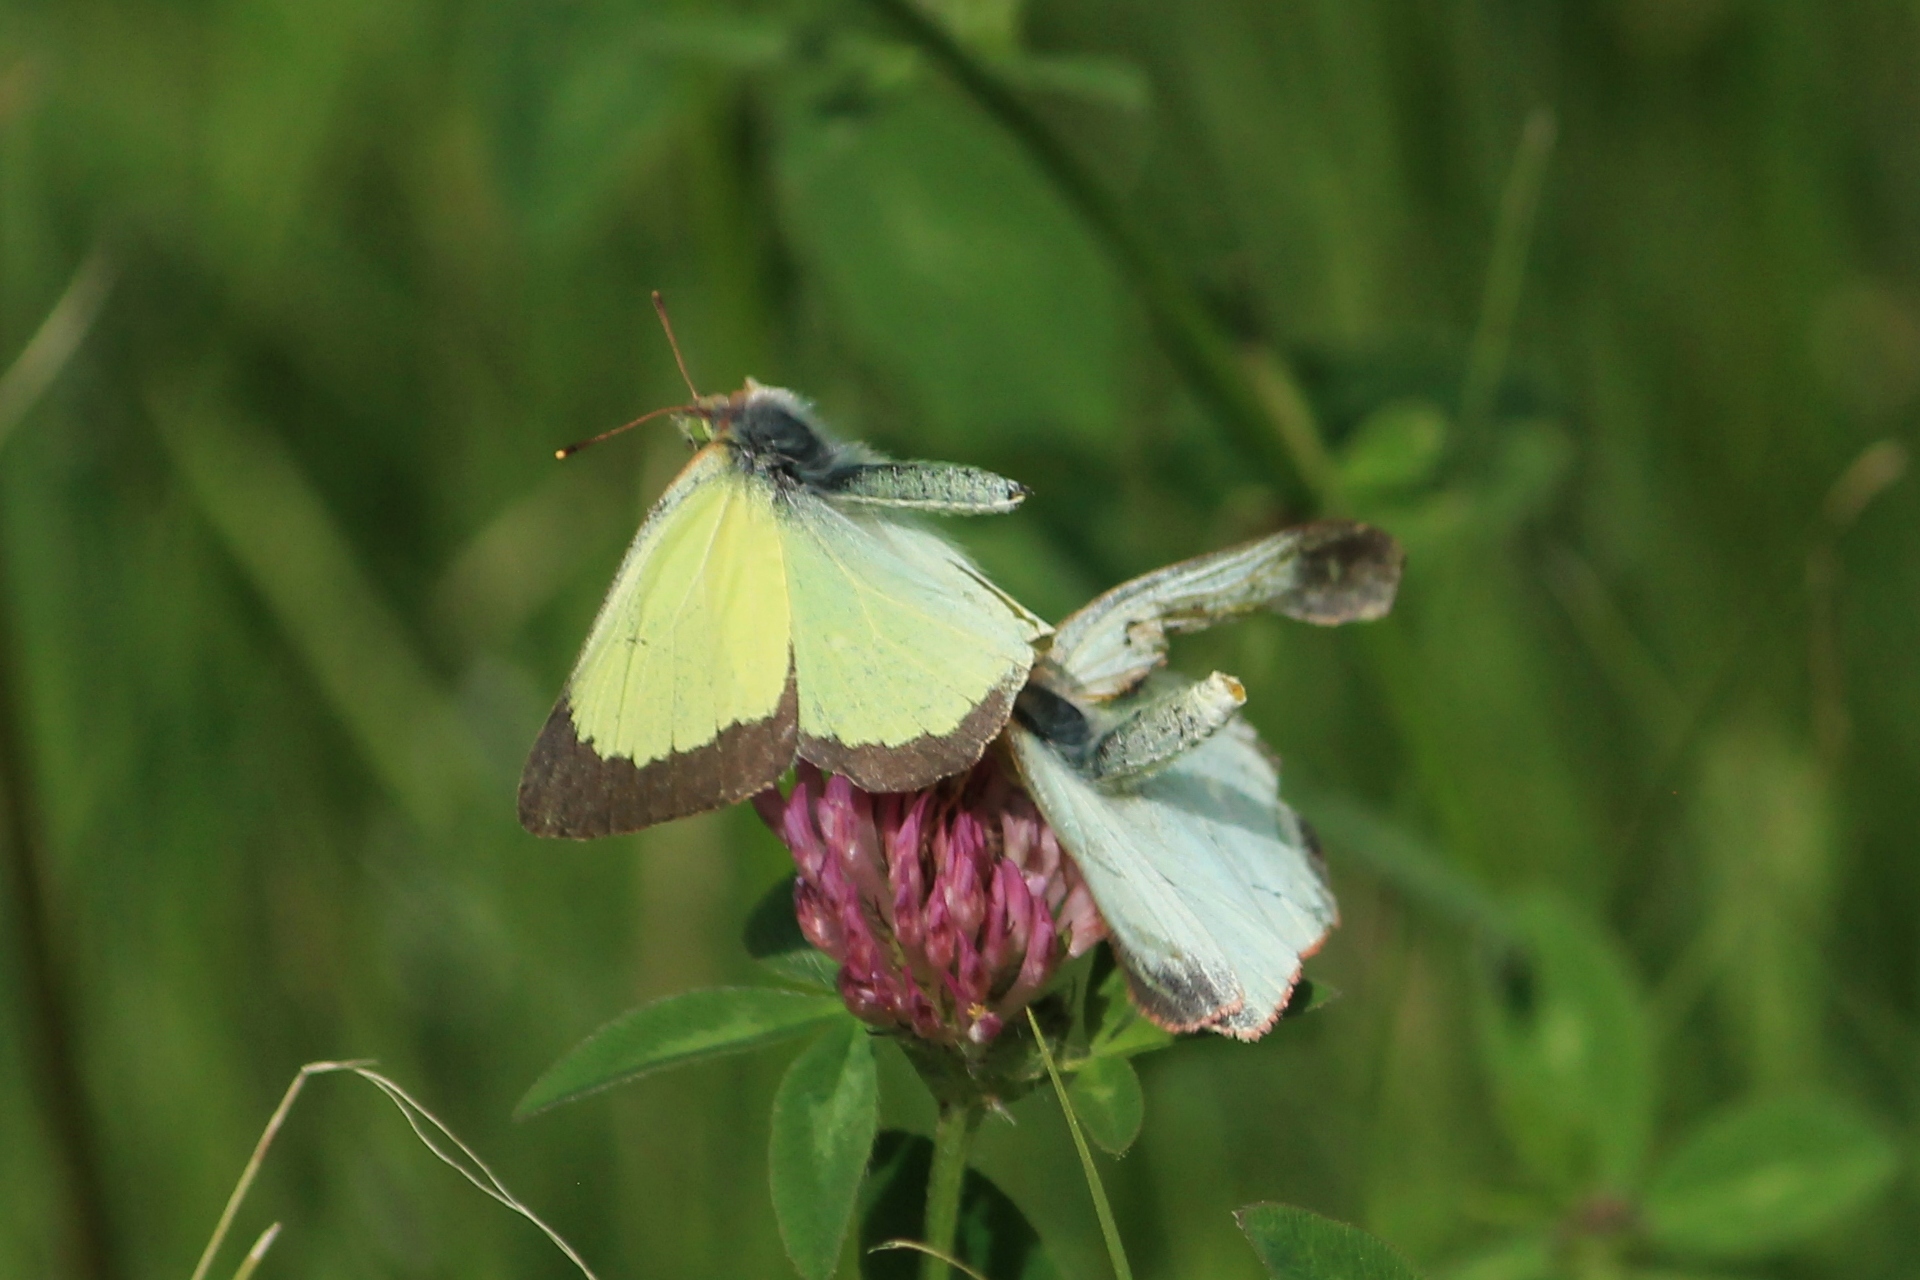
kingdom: Animalia
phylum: Arthropoda
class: Insecta
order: Lepidoptera
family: Pieridae
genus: Colias
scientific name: Colias palaeno
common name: Moorland clouded yellow
